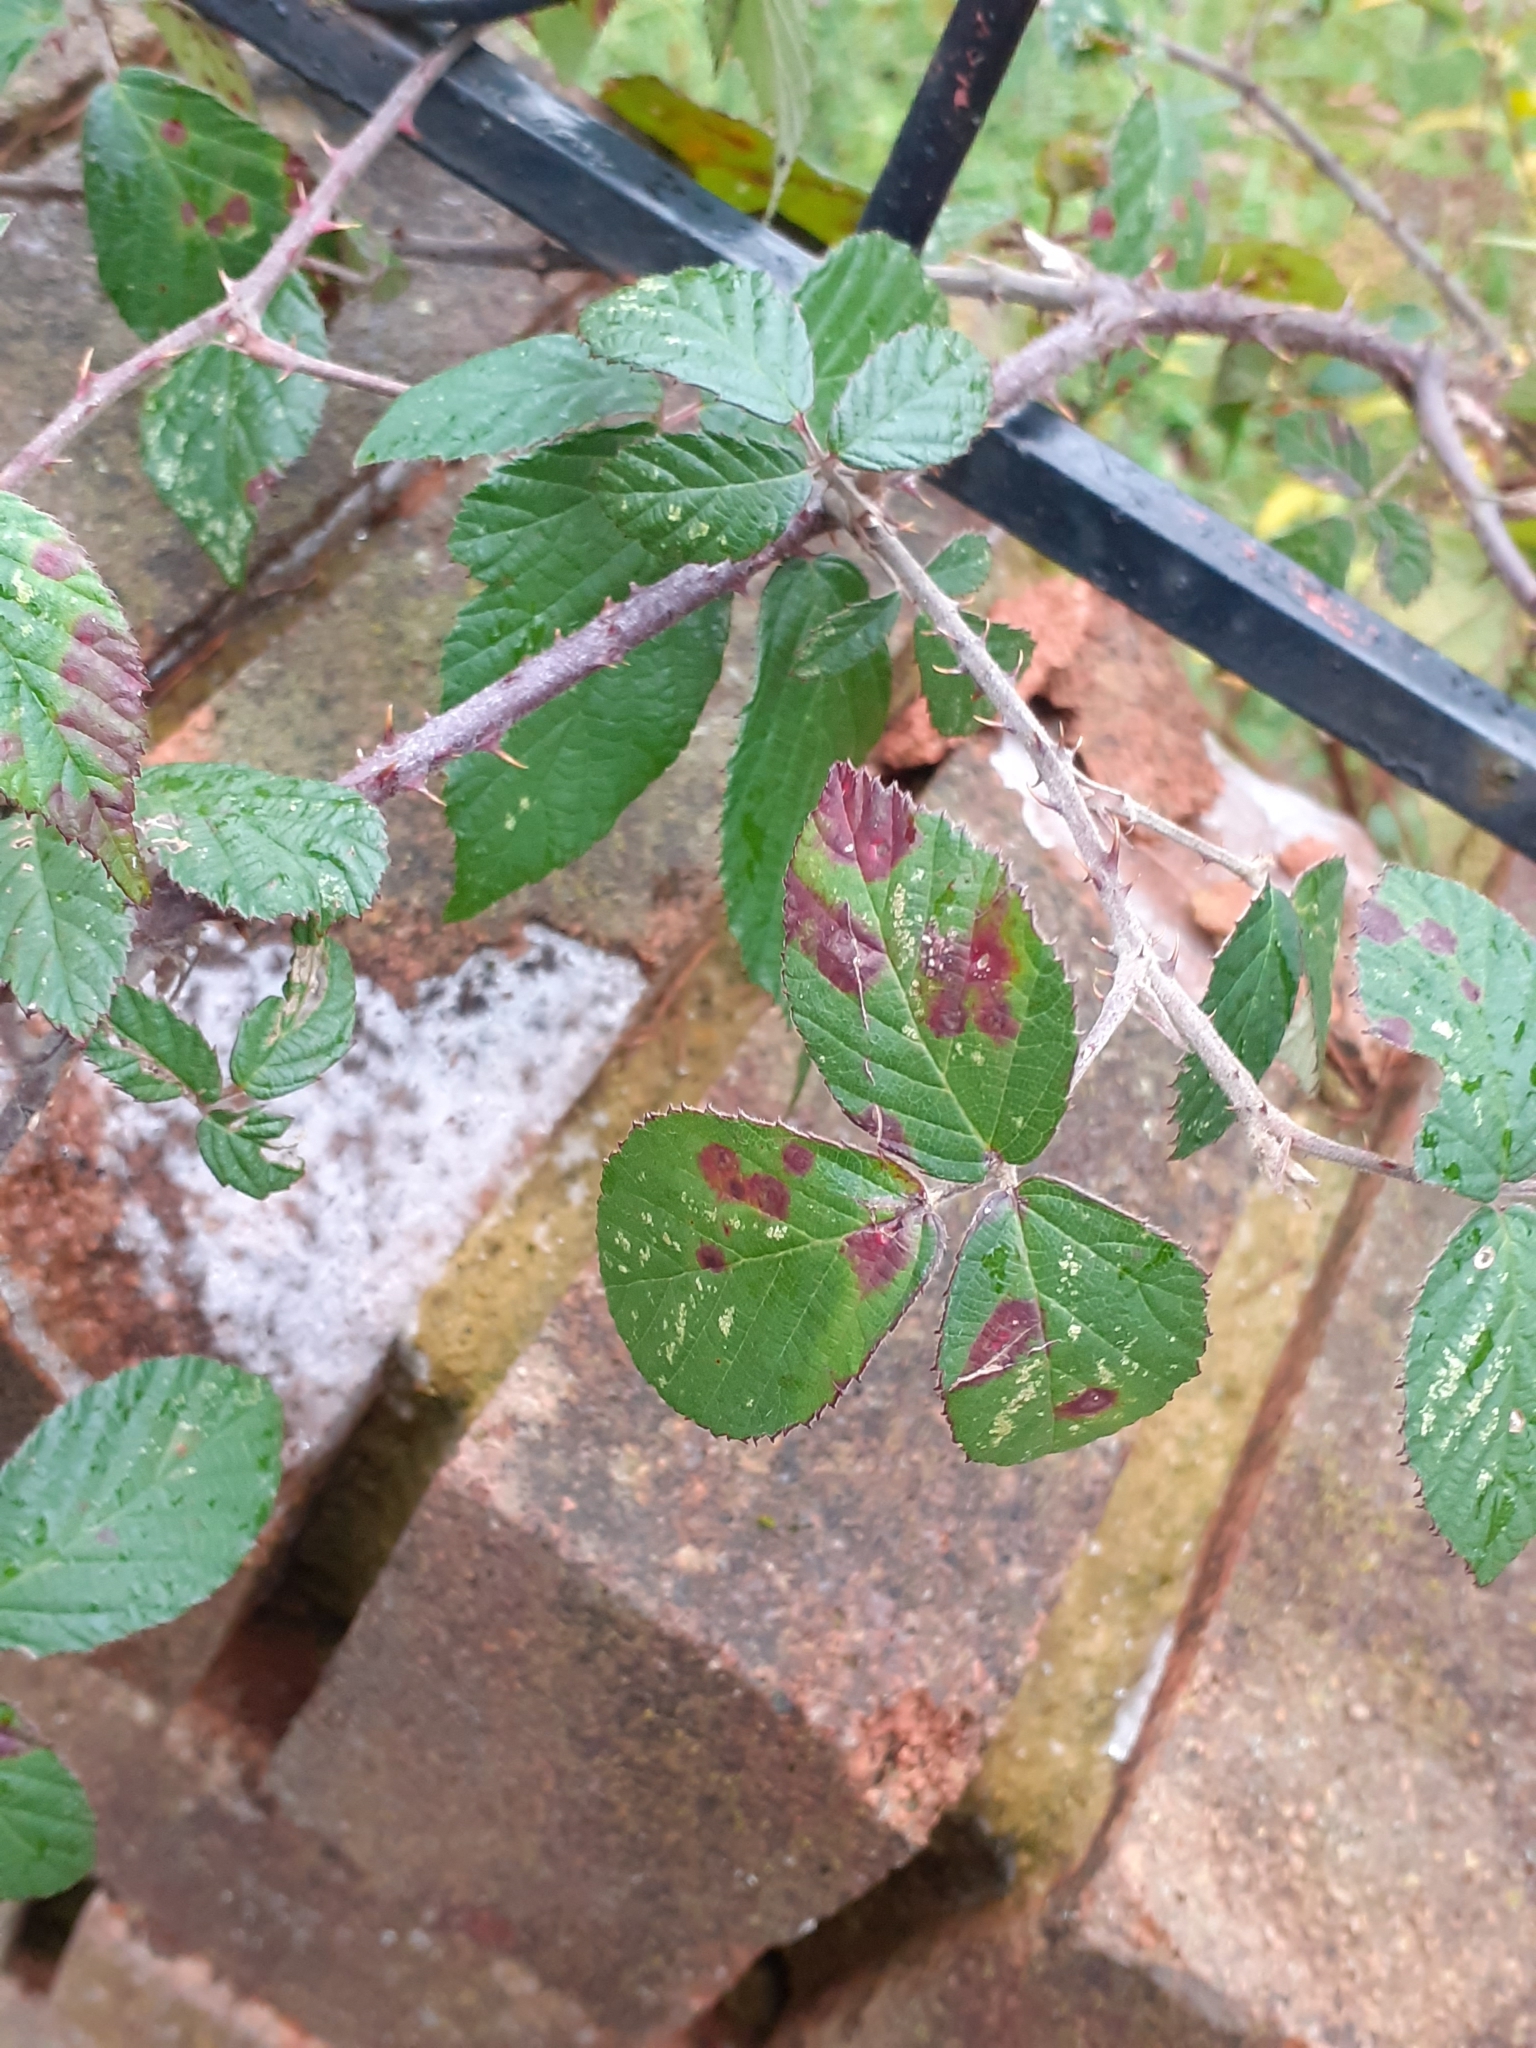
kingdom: Fungi
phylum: Basidiomycota
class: Pucciniomycetes
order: Pucciniales
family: Phragmidiaceae
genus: Phragmidium
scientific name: Phragmidium violaceum
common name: Violet bramble rust
